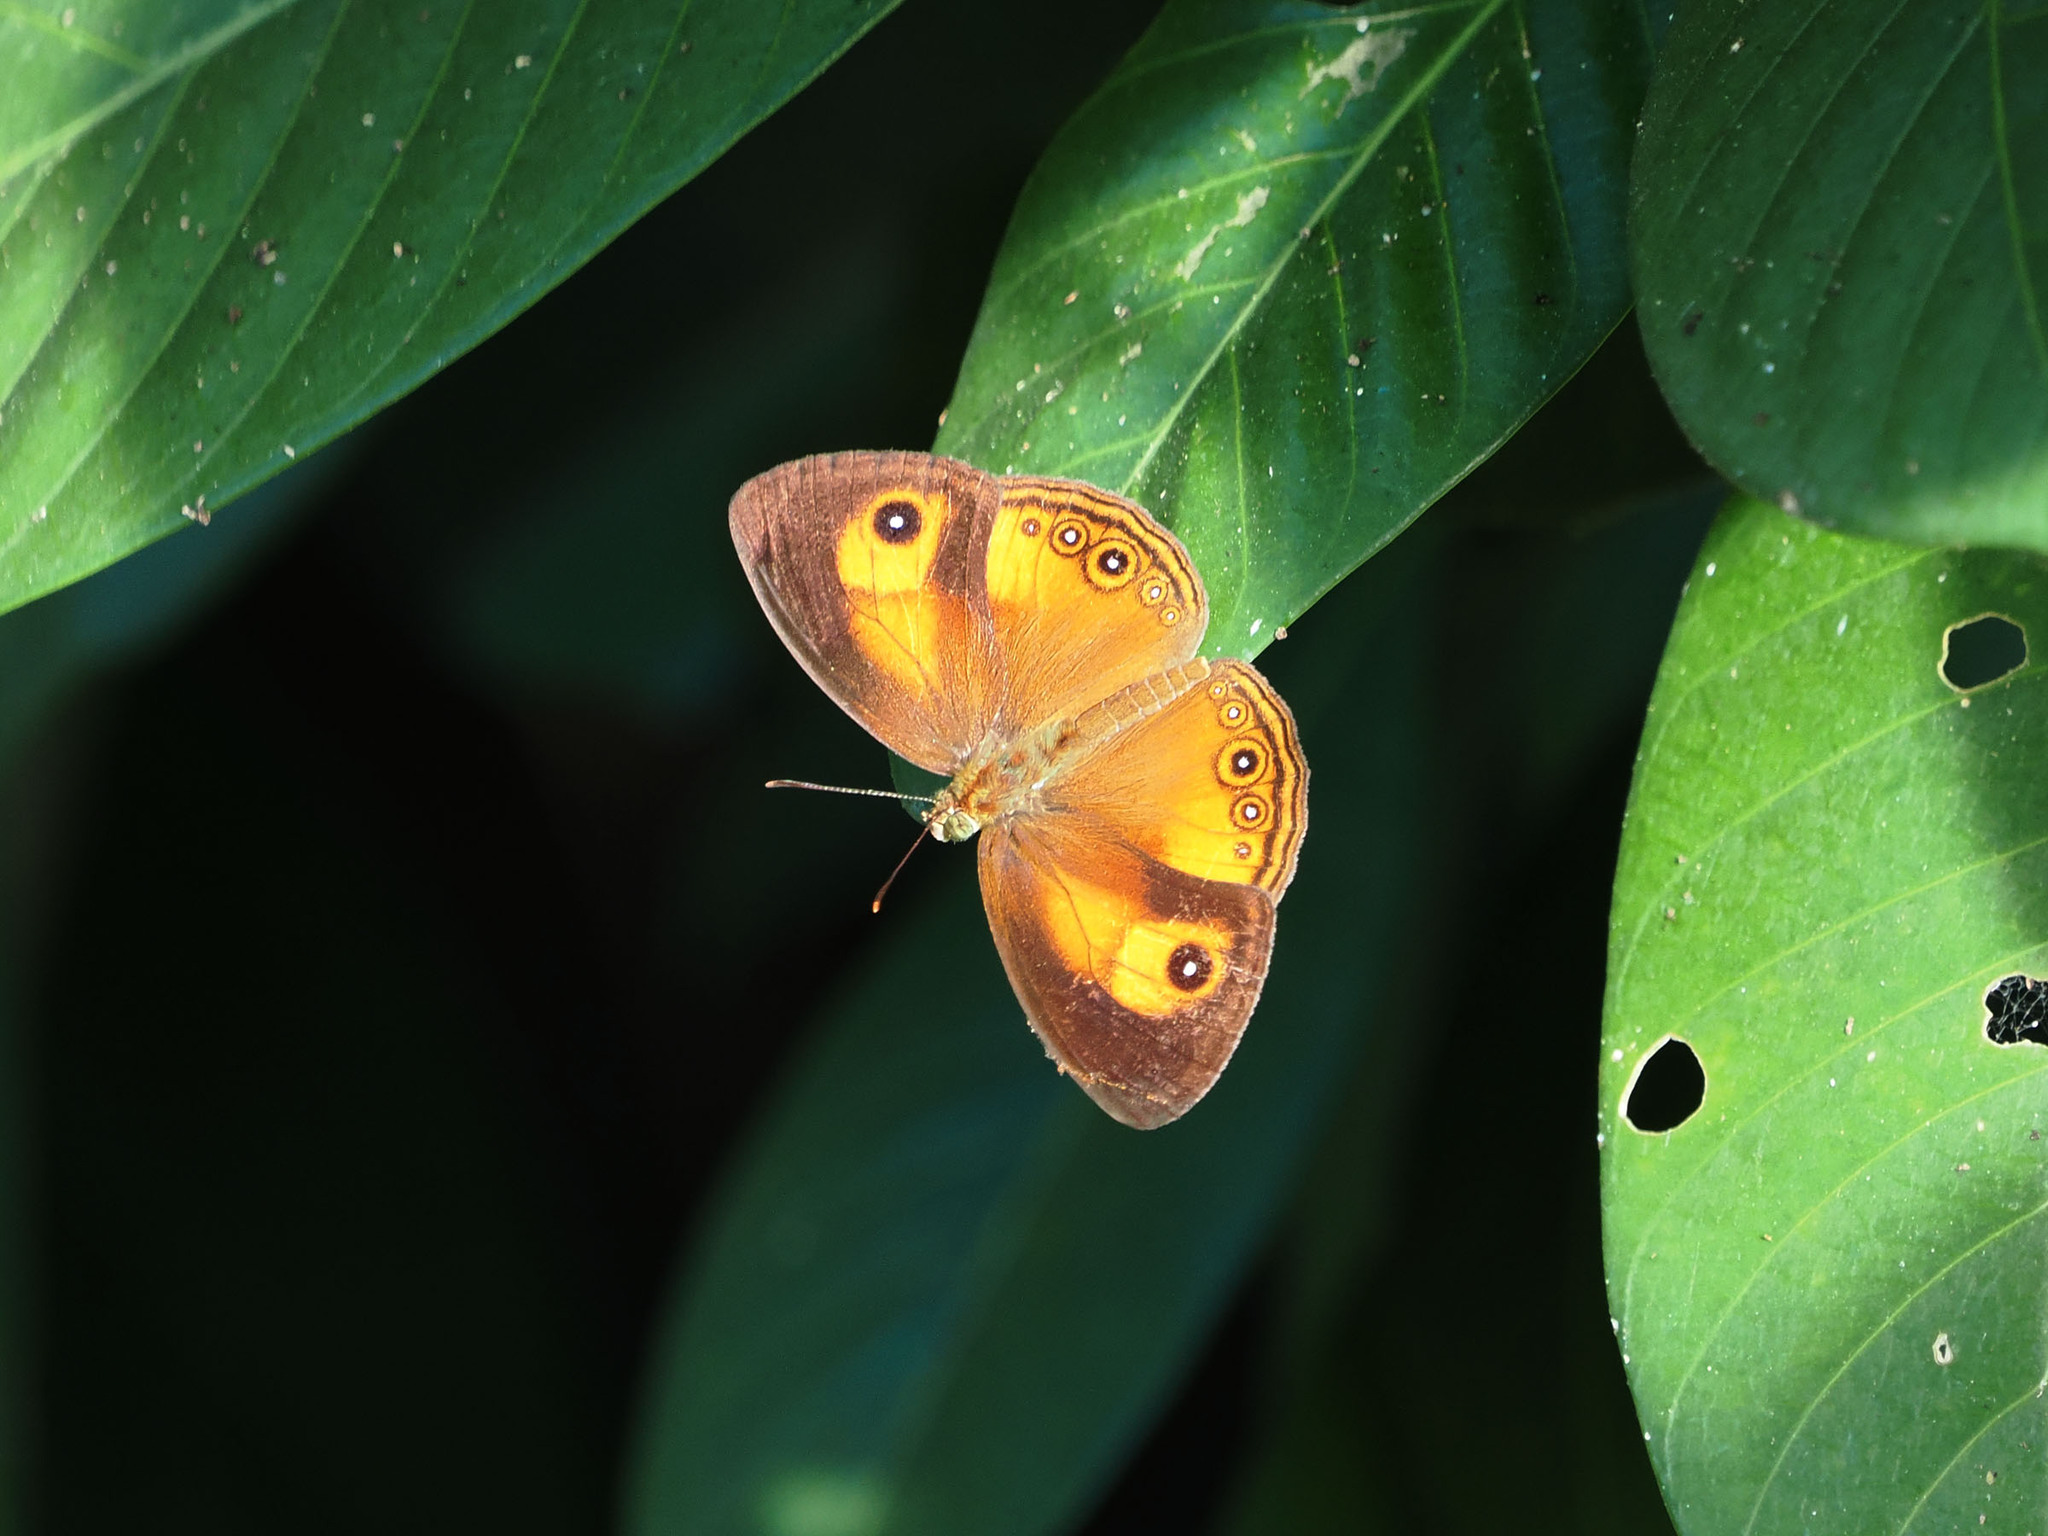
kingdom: Animalia
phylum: Arthropoda
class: Insecta
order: Lepidoptera
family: Nymphalidae
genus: Mycalesis
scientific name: Mycalesis ita
